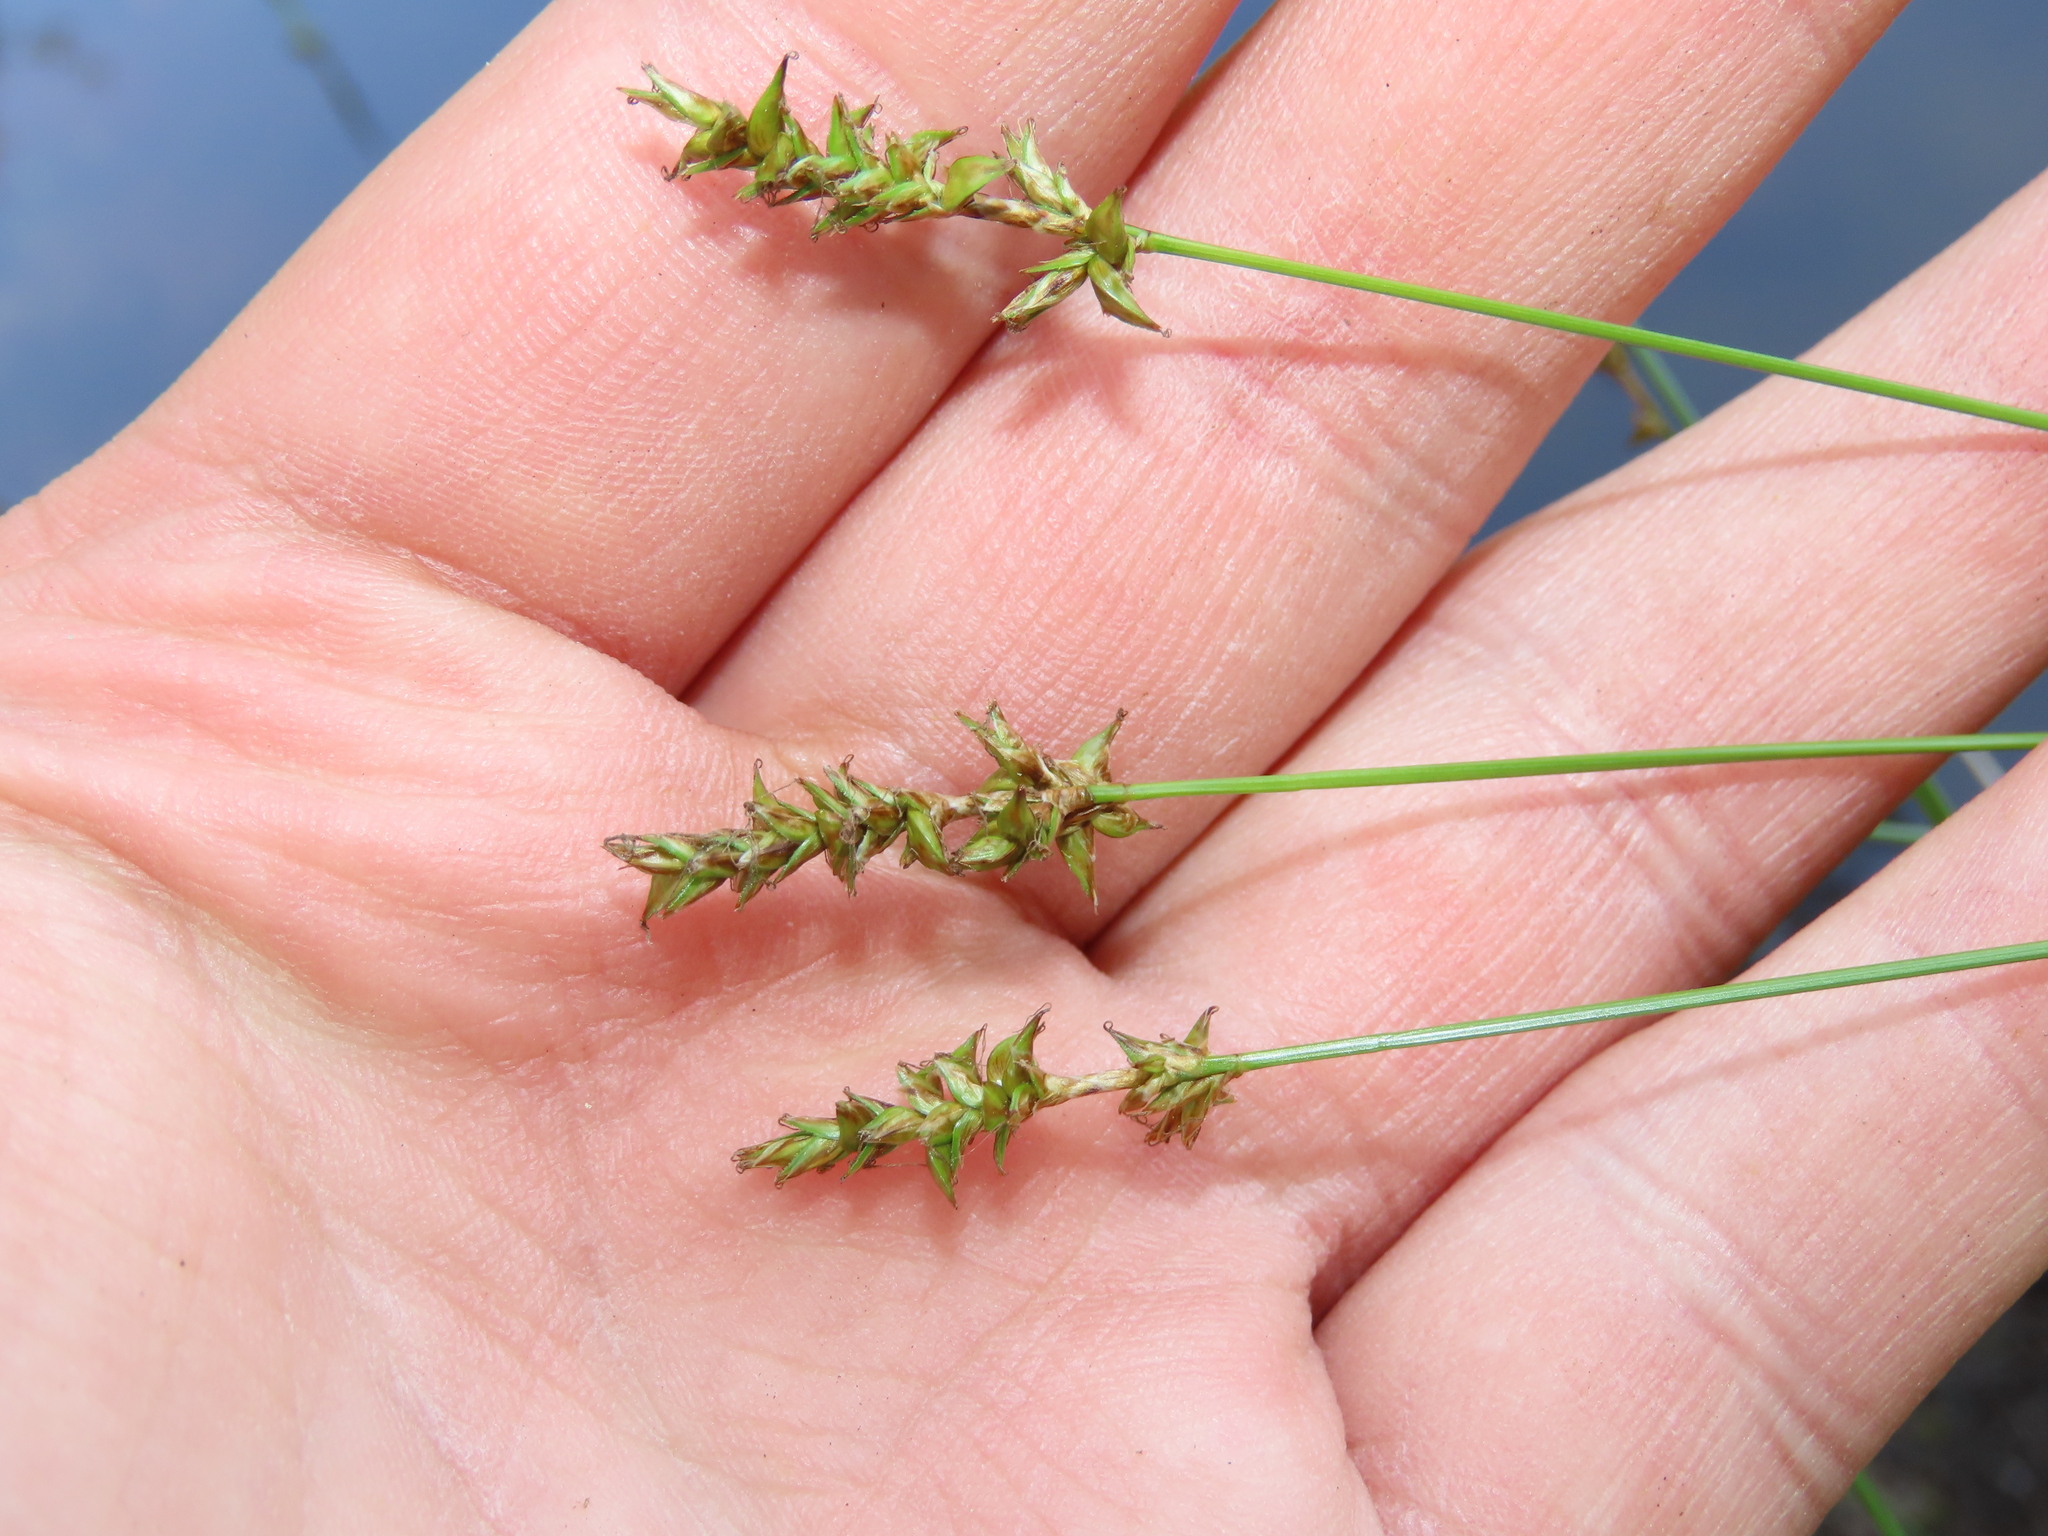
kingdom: Plantae
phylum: Tracheophyta
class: Liliopsida
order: Poales
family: Cyperaceae
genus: Carex
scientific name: Carex retroflexa
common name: Reflexed sedge
